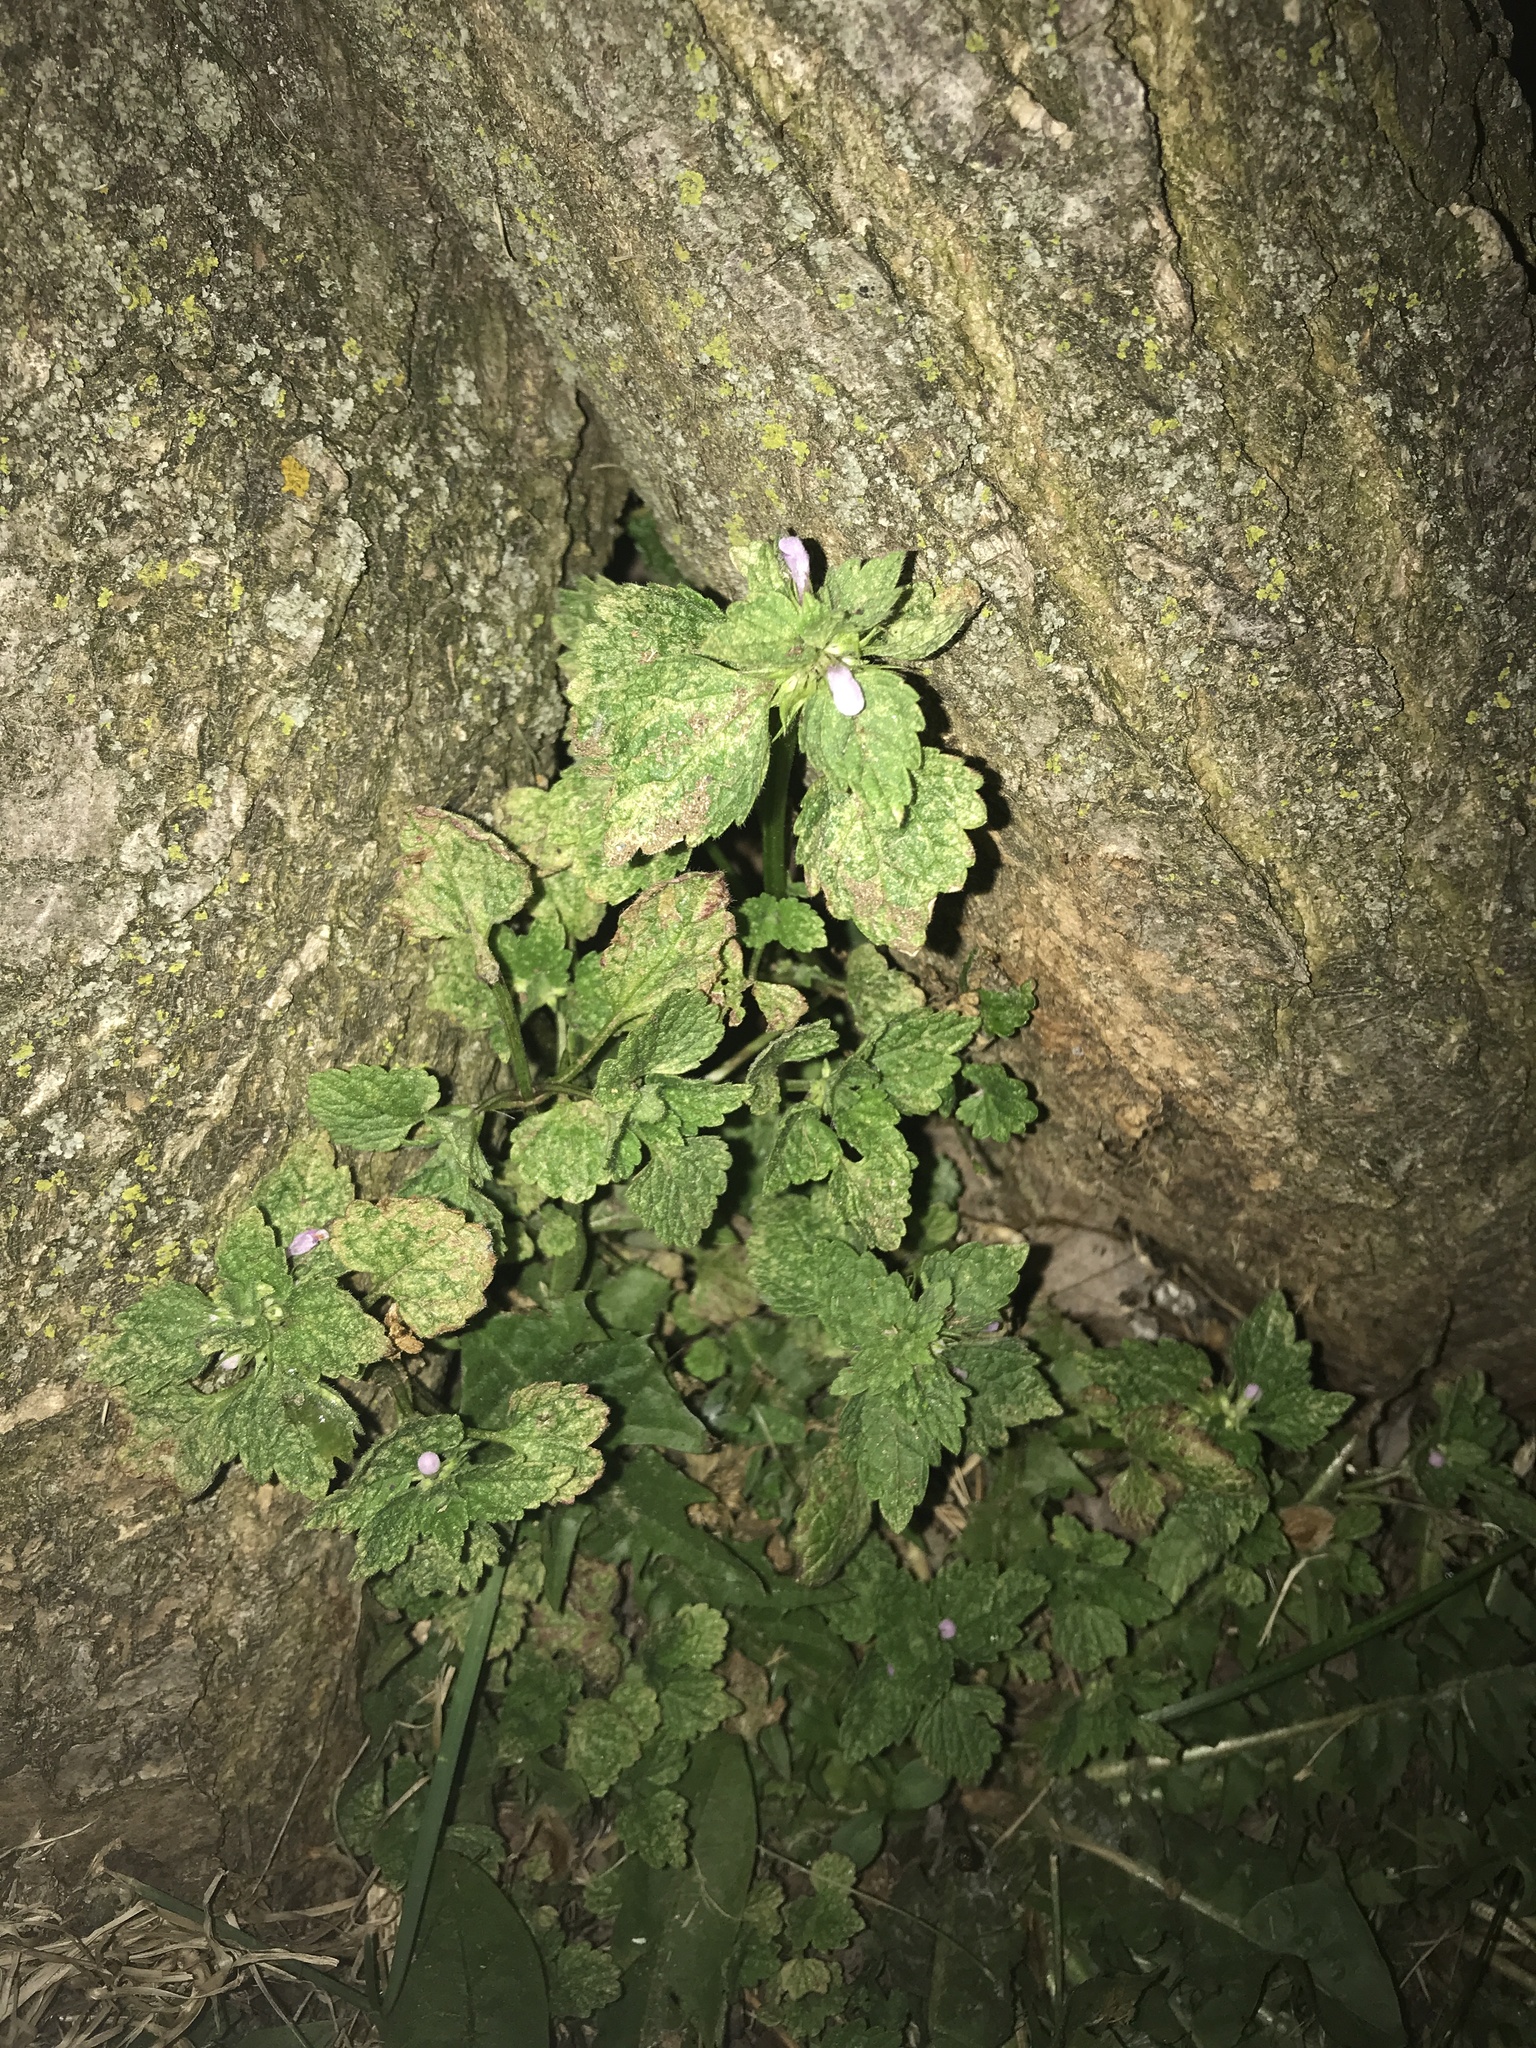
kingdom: Plantae
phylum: Tracheophyta
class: Magnoliopsida
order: Lamiales
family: Lamiaceae
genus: Lamium
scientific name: Lamium purpureum
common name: Red dead-nettle
